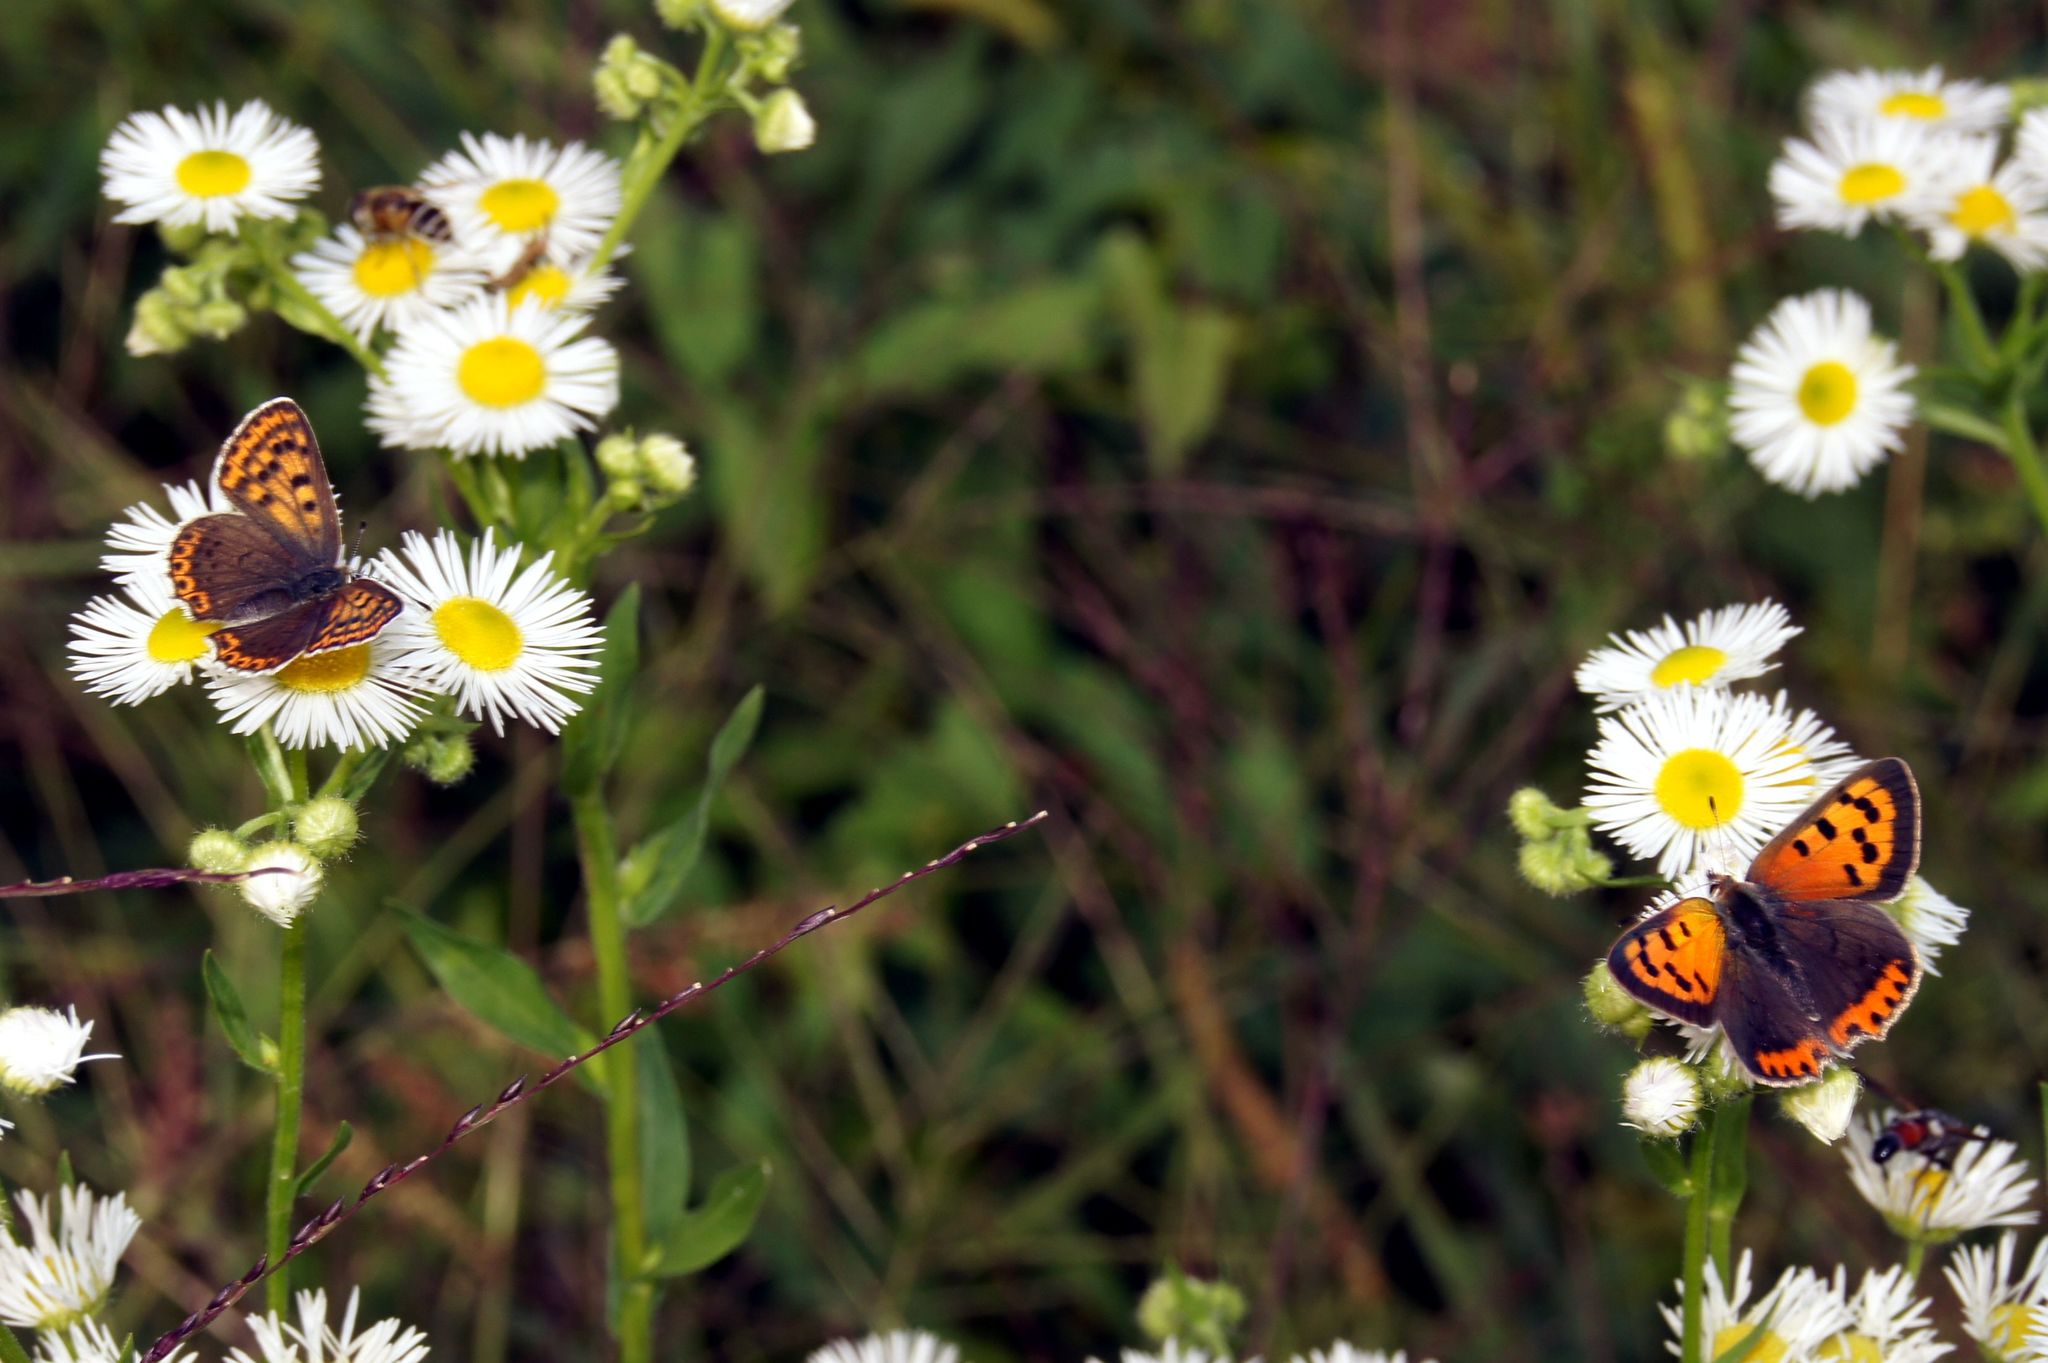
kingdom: Animalia
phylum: Arthropoda
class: Insecta
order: Lepidoptera
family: Lycaenidae
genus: Loweia
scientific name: Loweia tityrus
